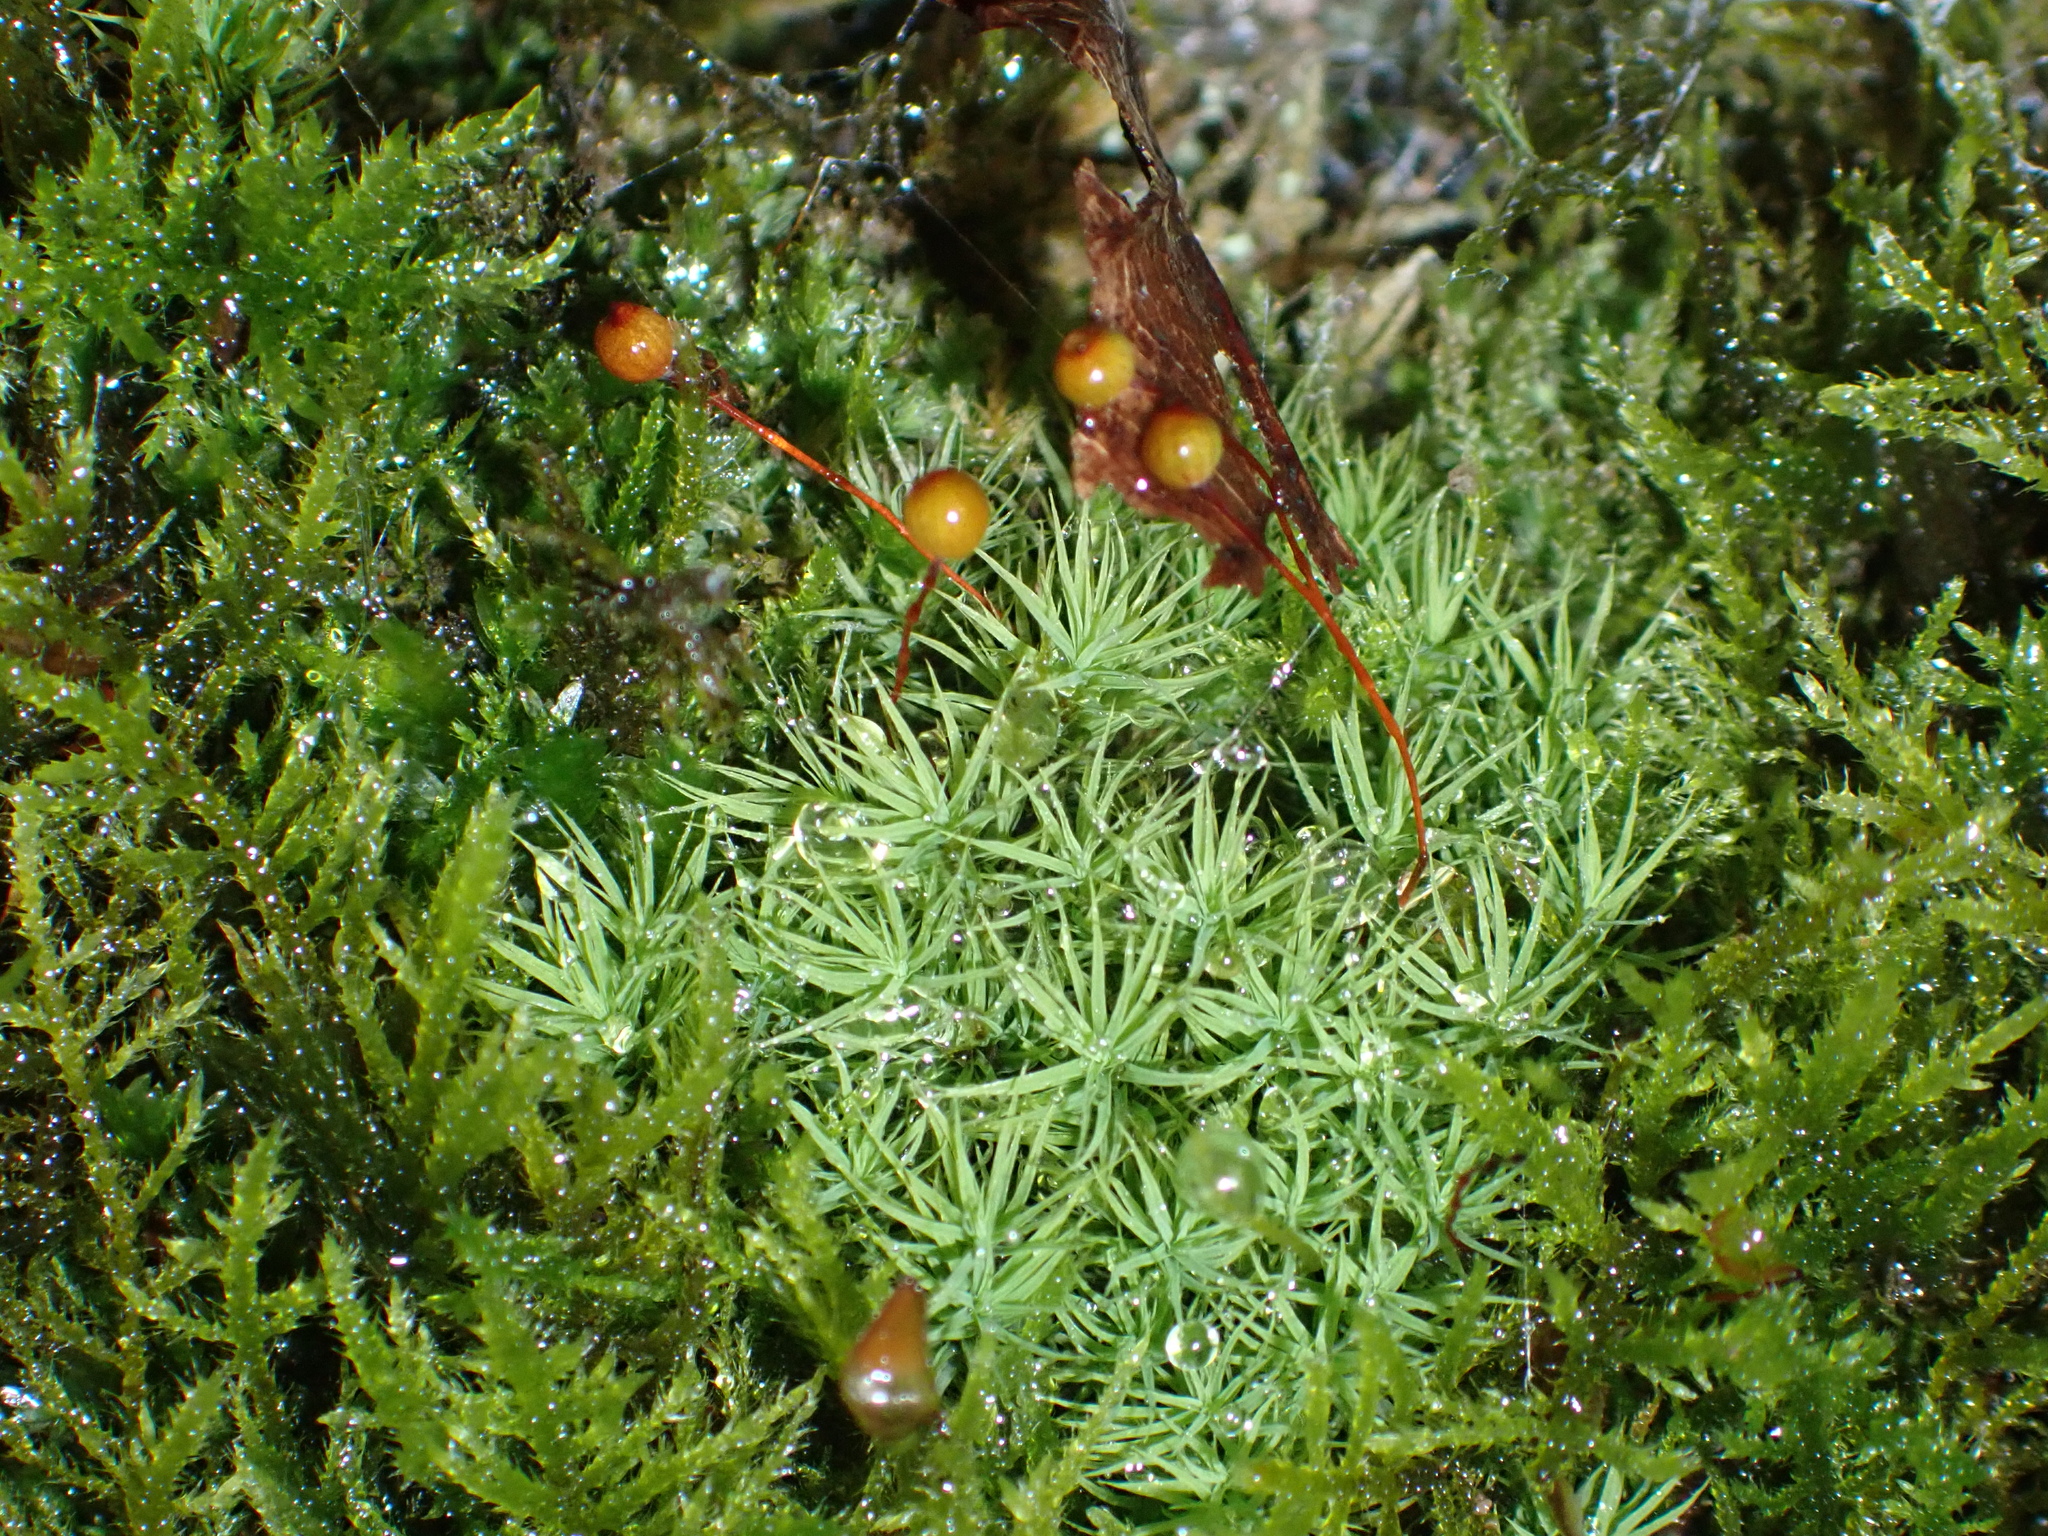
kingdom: Plantae
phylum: Bryophyta
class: Bryopsida
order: Bartramiales
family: Bartramiaceae
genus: Bartramia
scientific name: Bartramia ithyphylla
